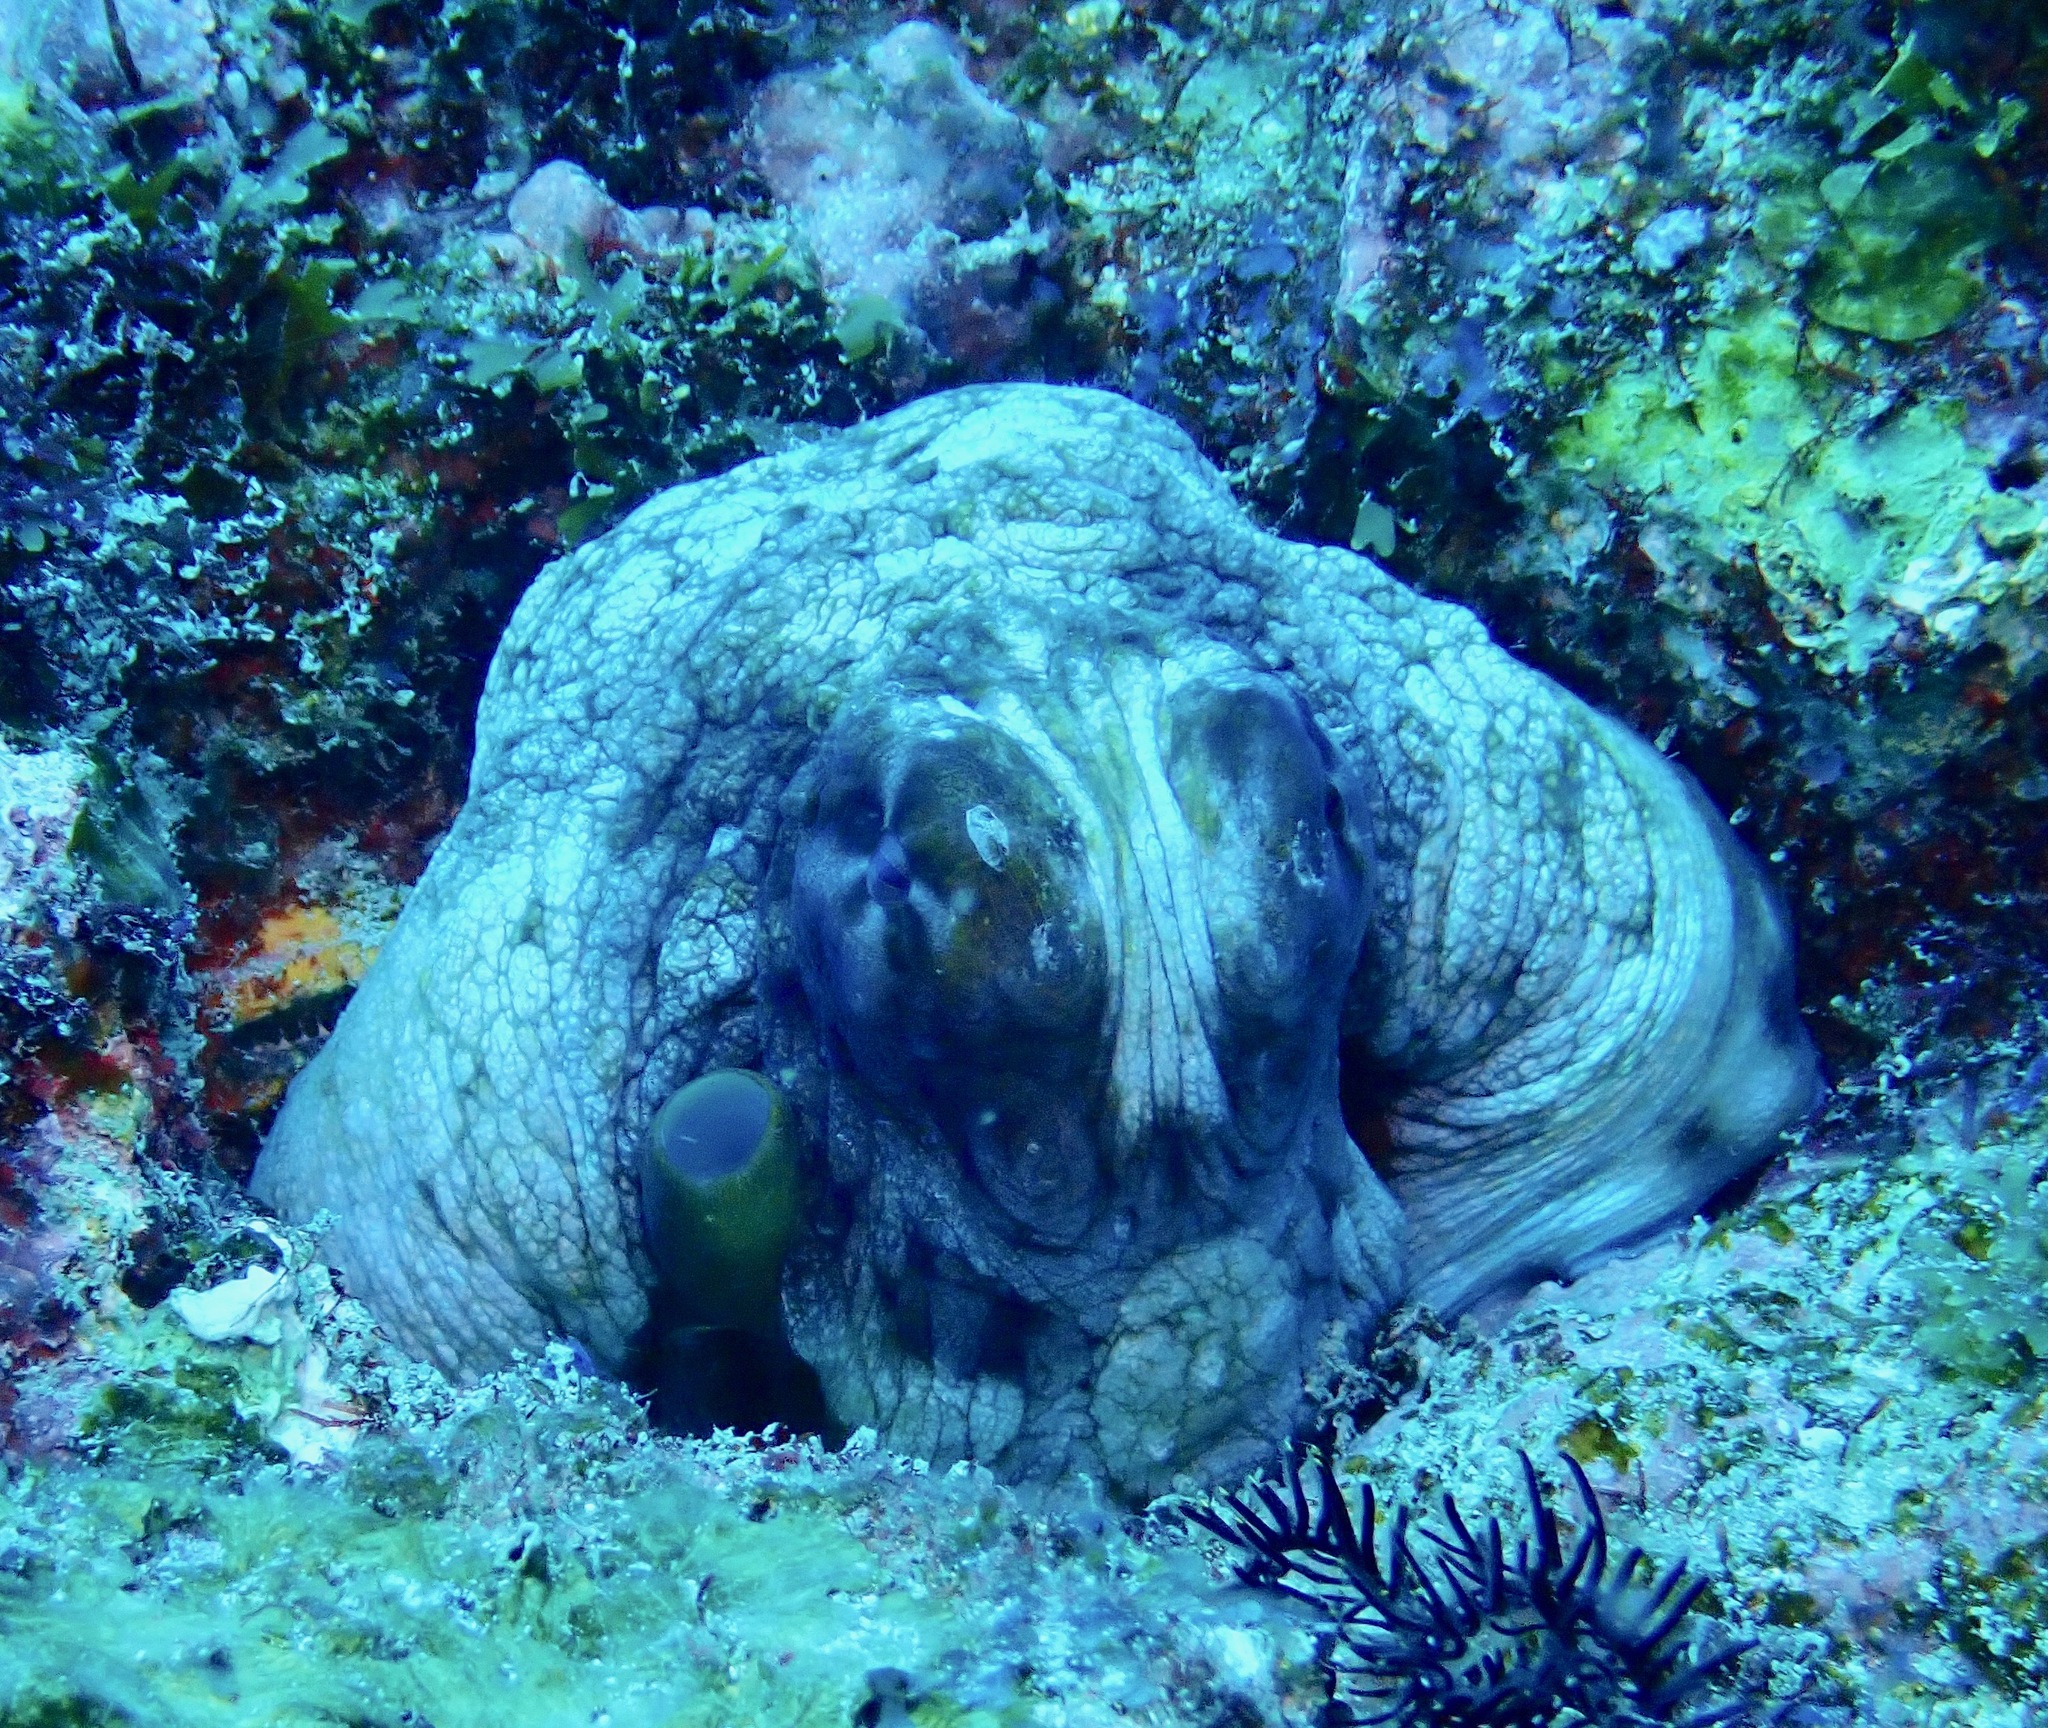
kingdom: Animalia
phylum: Mollusca
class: Cephalopoda
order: Octopoda
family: Octopodidae
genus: Octopus
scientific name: Octopus cyanea
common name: Cyane's octopus
